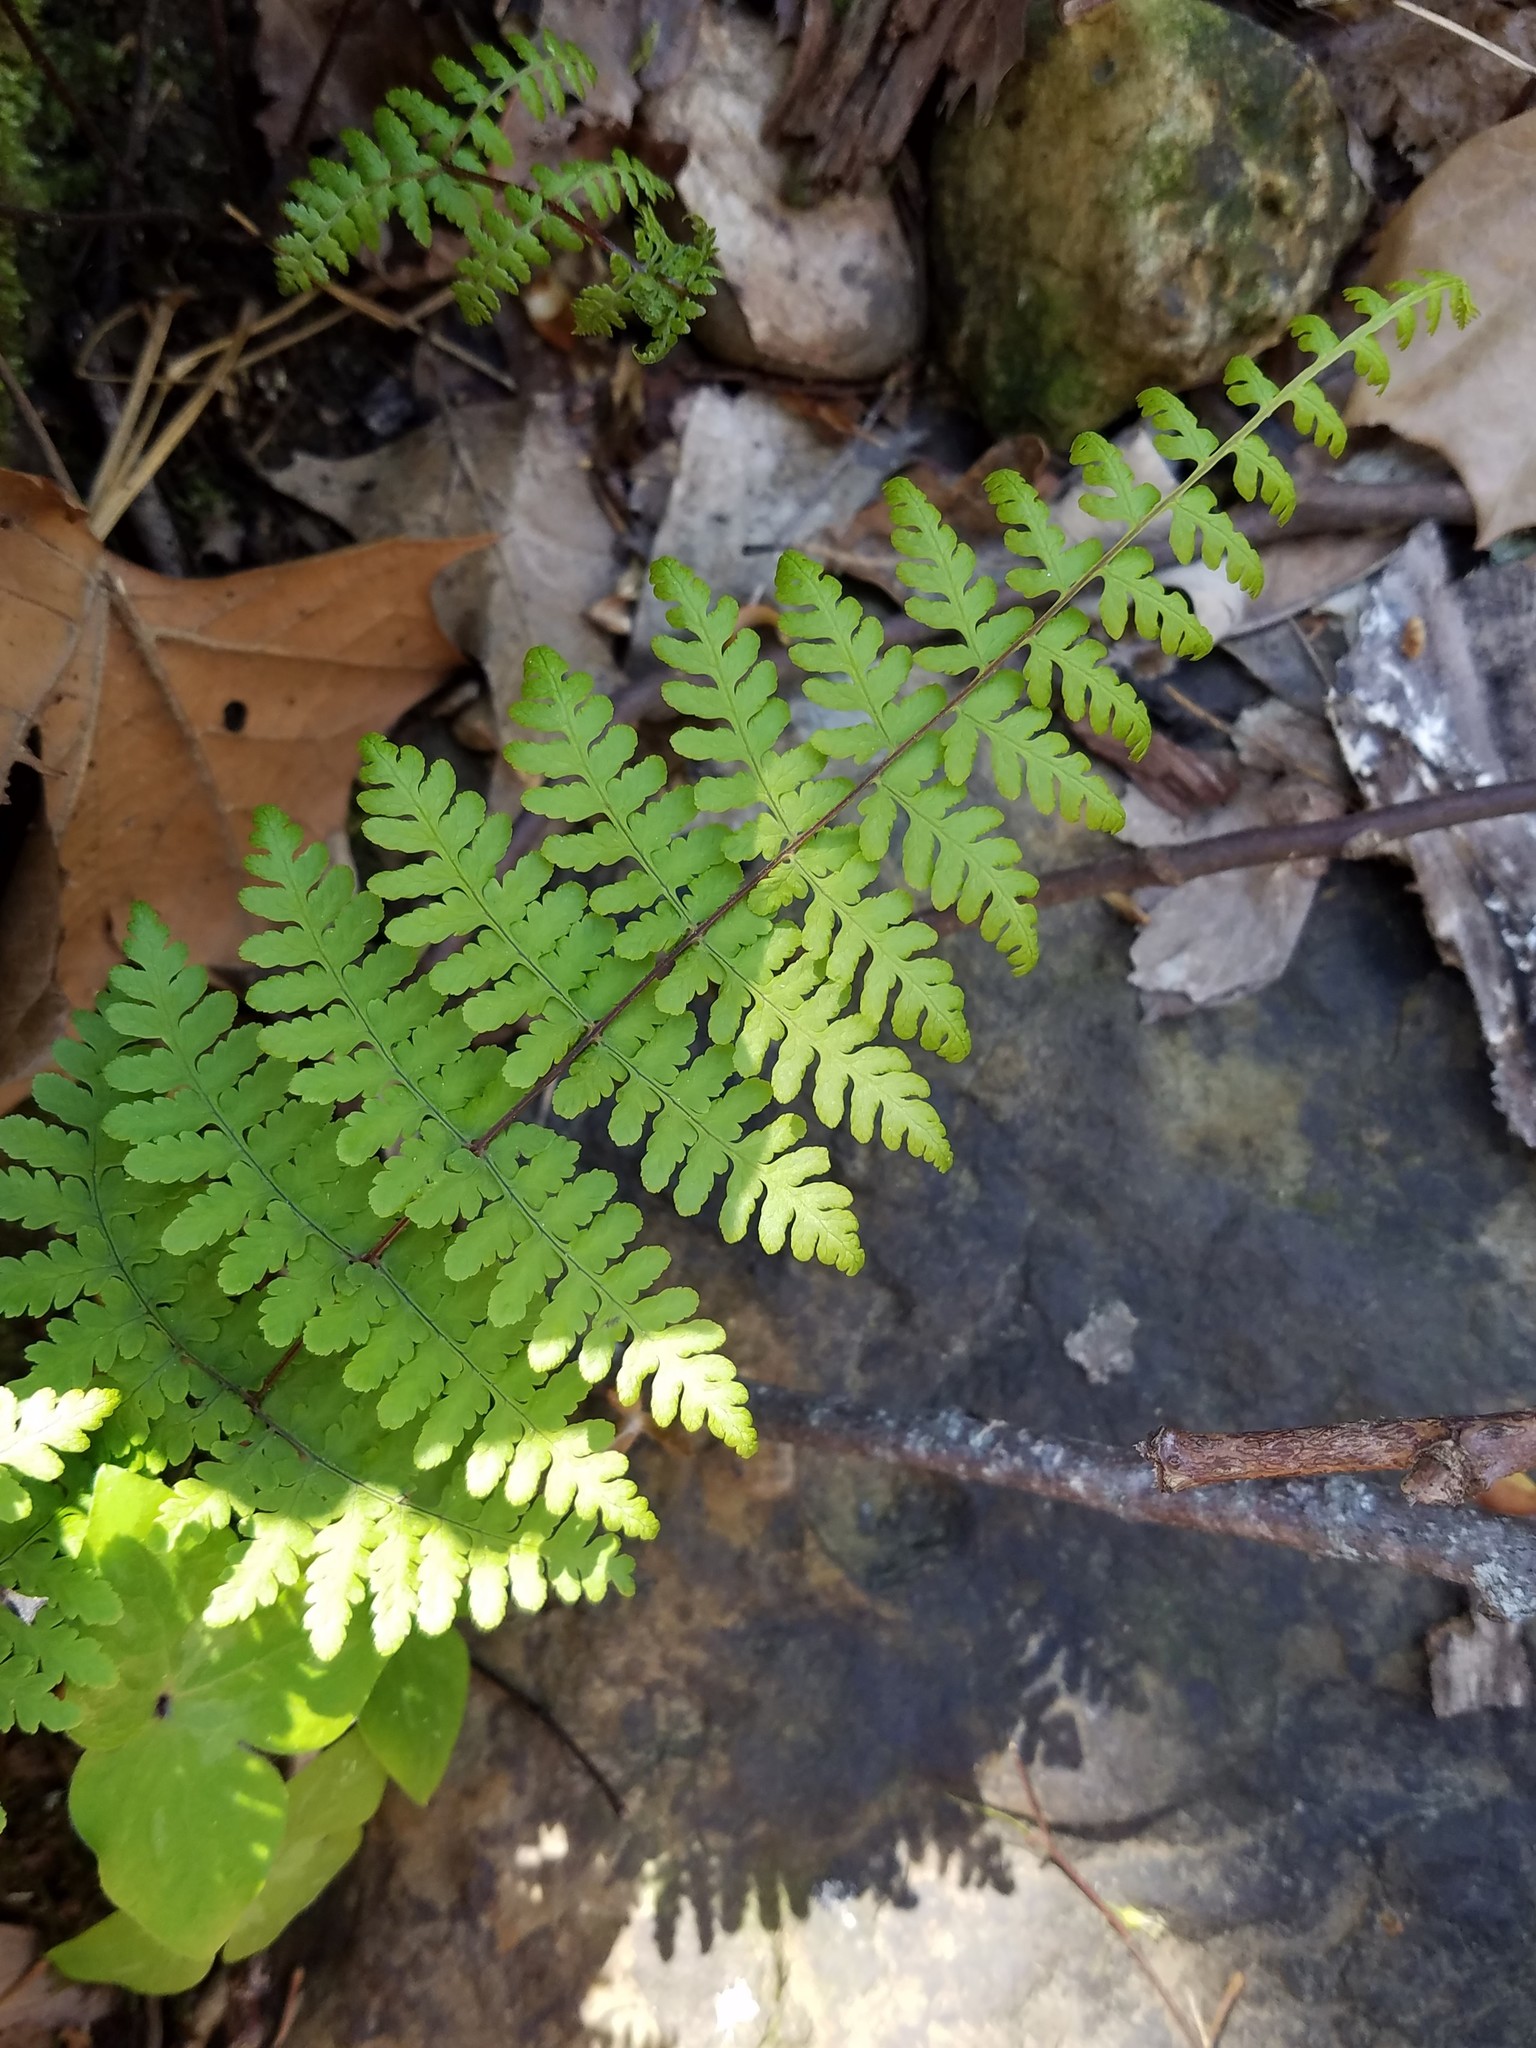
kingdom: Plantae
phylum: Tracheophyta
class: Polypodiopsida
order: Polypodiales
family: Cystopteridaceae
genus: Cystopteris
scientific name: Cystopteris bulbifera
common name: Bulblet bladder fern
